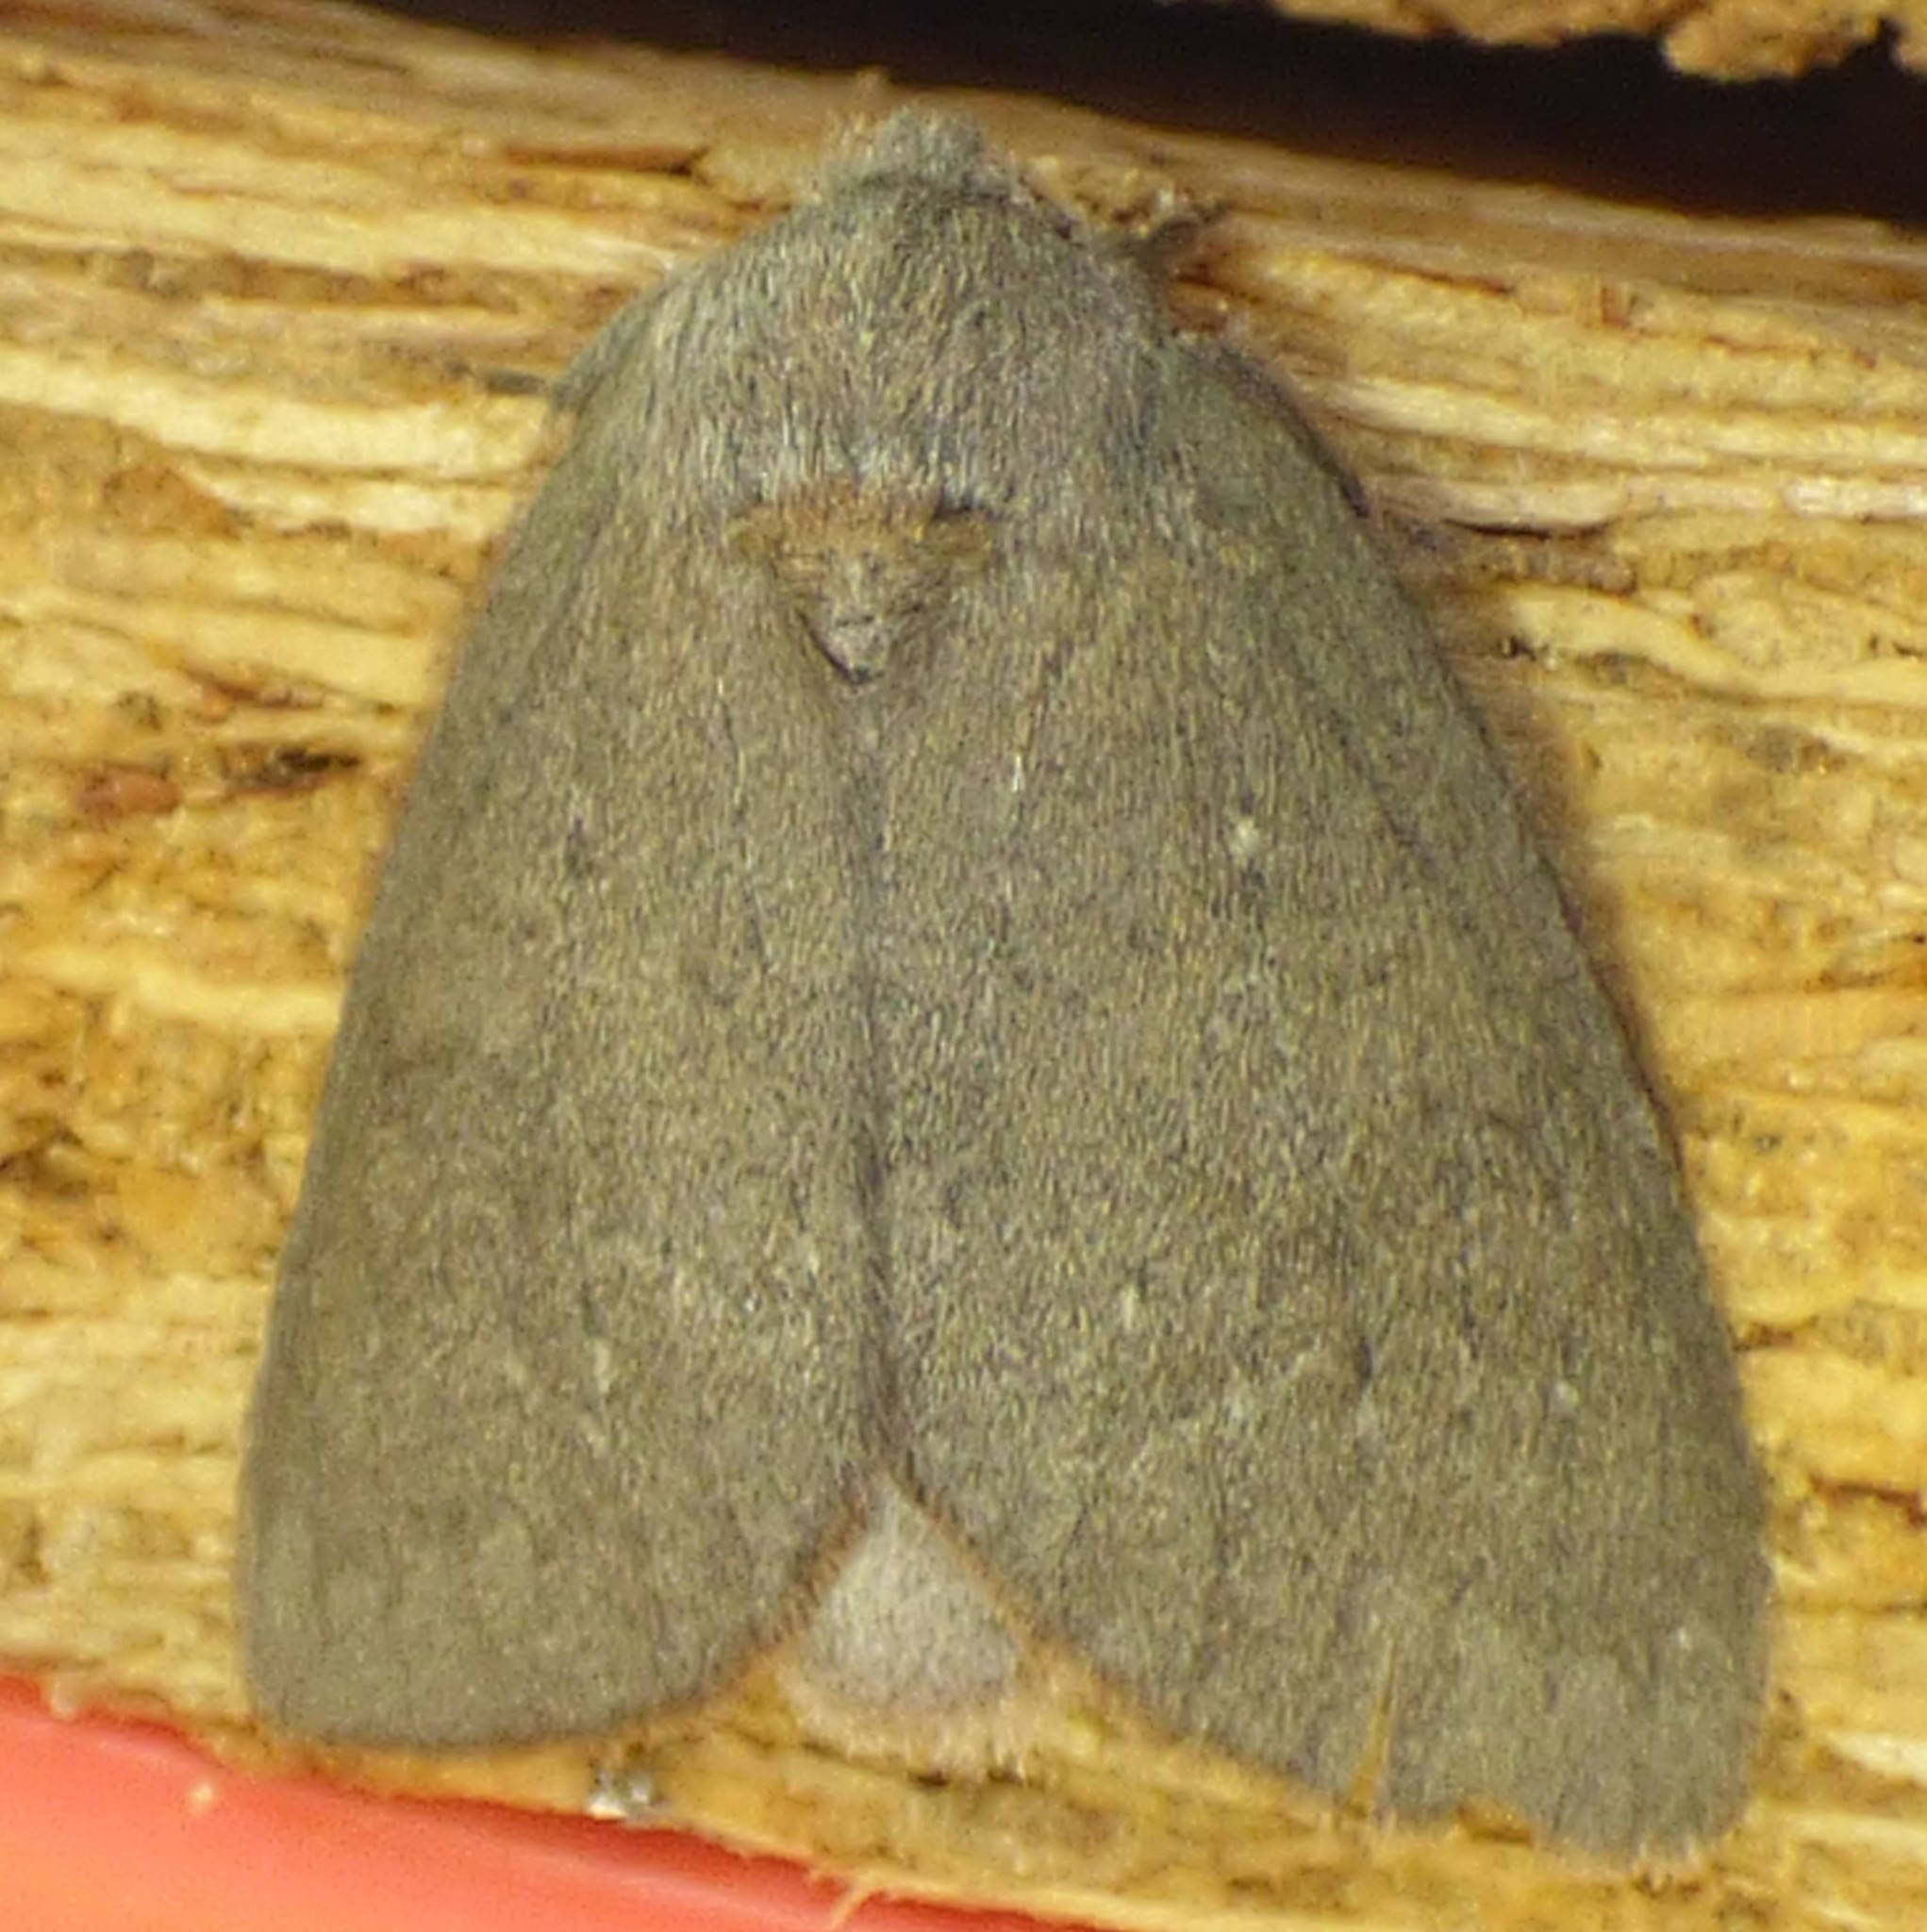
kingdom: Animalia
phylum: Arthropoda
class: Insecta
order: Lepidoptera
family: Notodontidae
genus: Misogada
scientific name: Misogada unicolor
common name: Drab prominent
